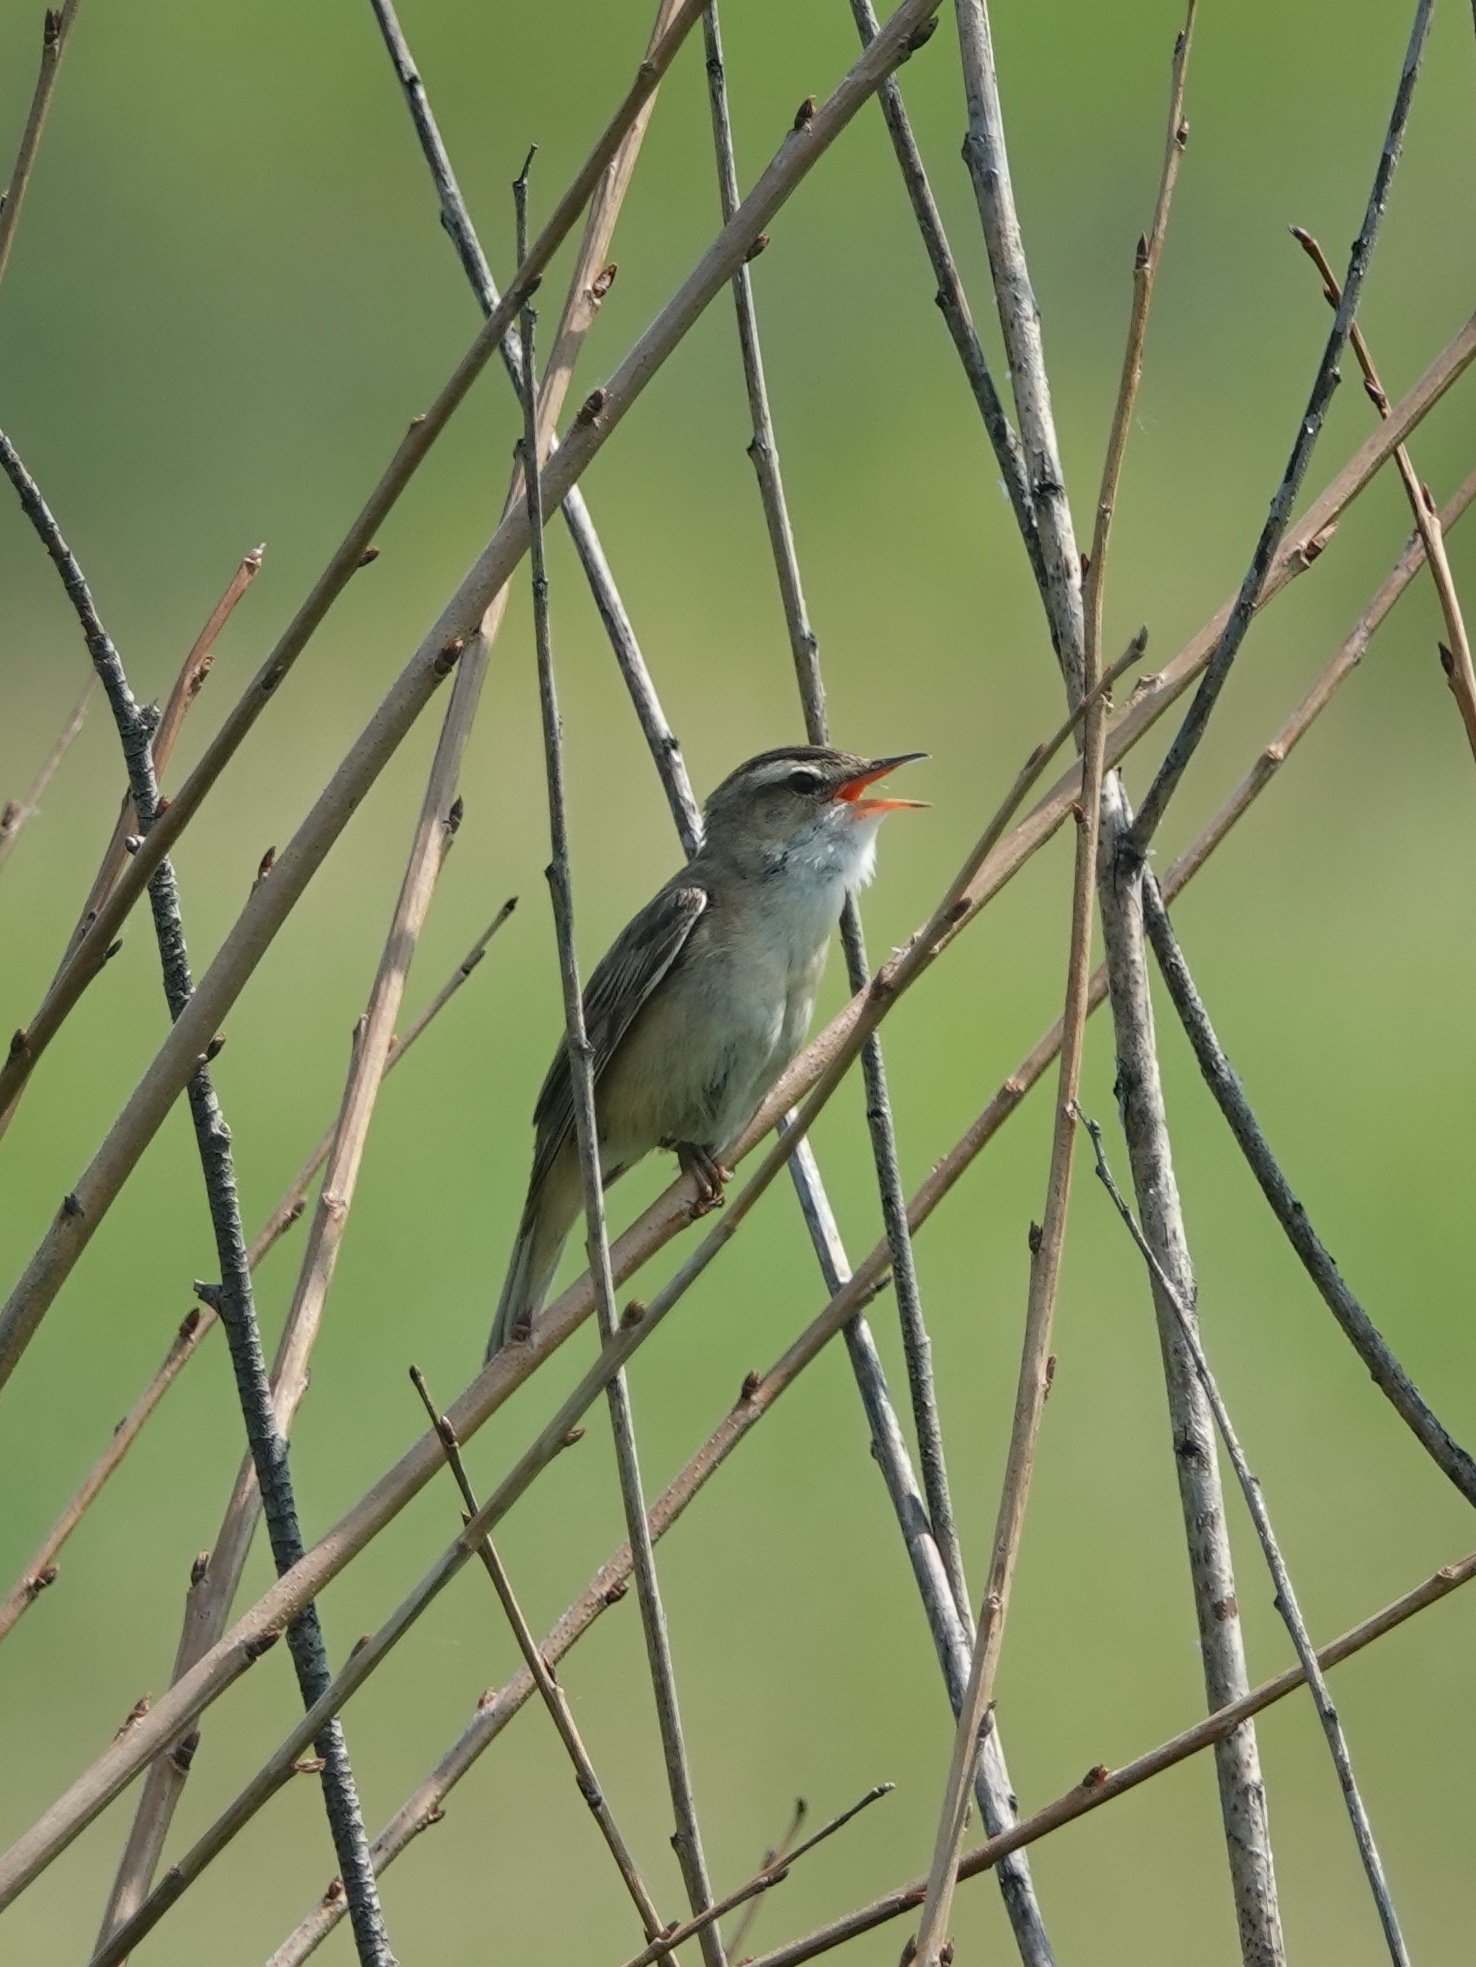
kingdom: Animalia
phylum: Chordata
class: Aves
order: Passeriformes
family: Acrocephalidae
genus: Acrocephalus
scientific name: Acrocephalus schoenobaenus
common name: Sedge warbler
